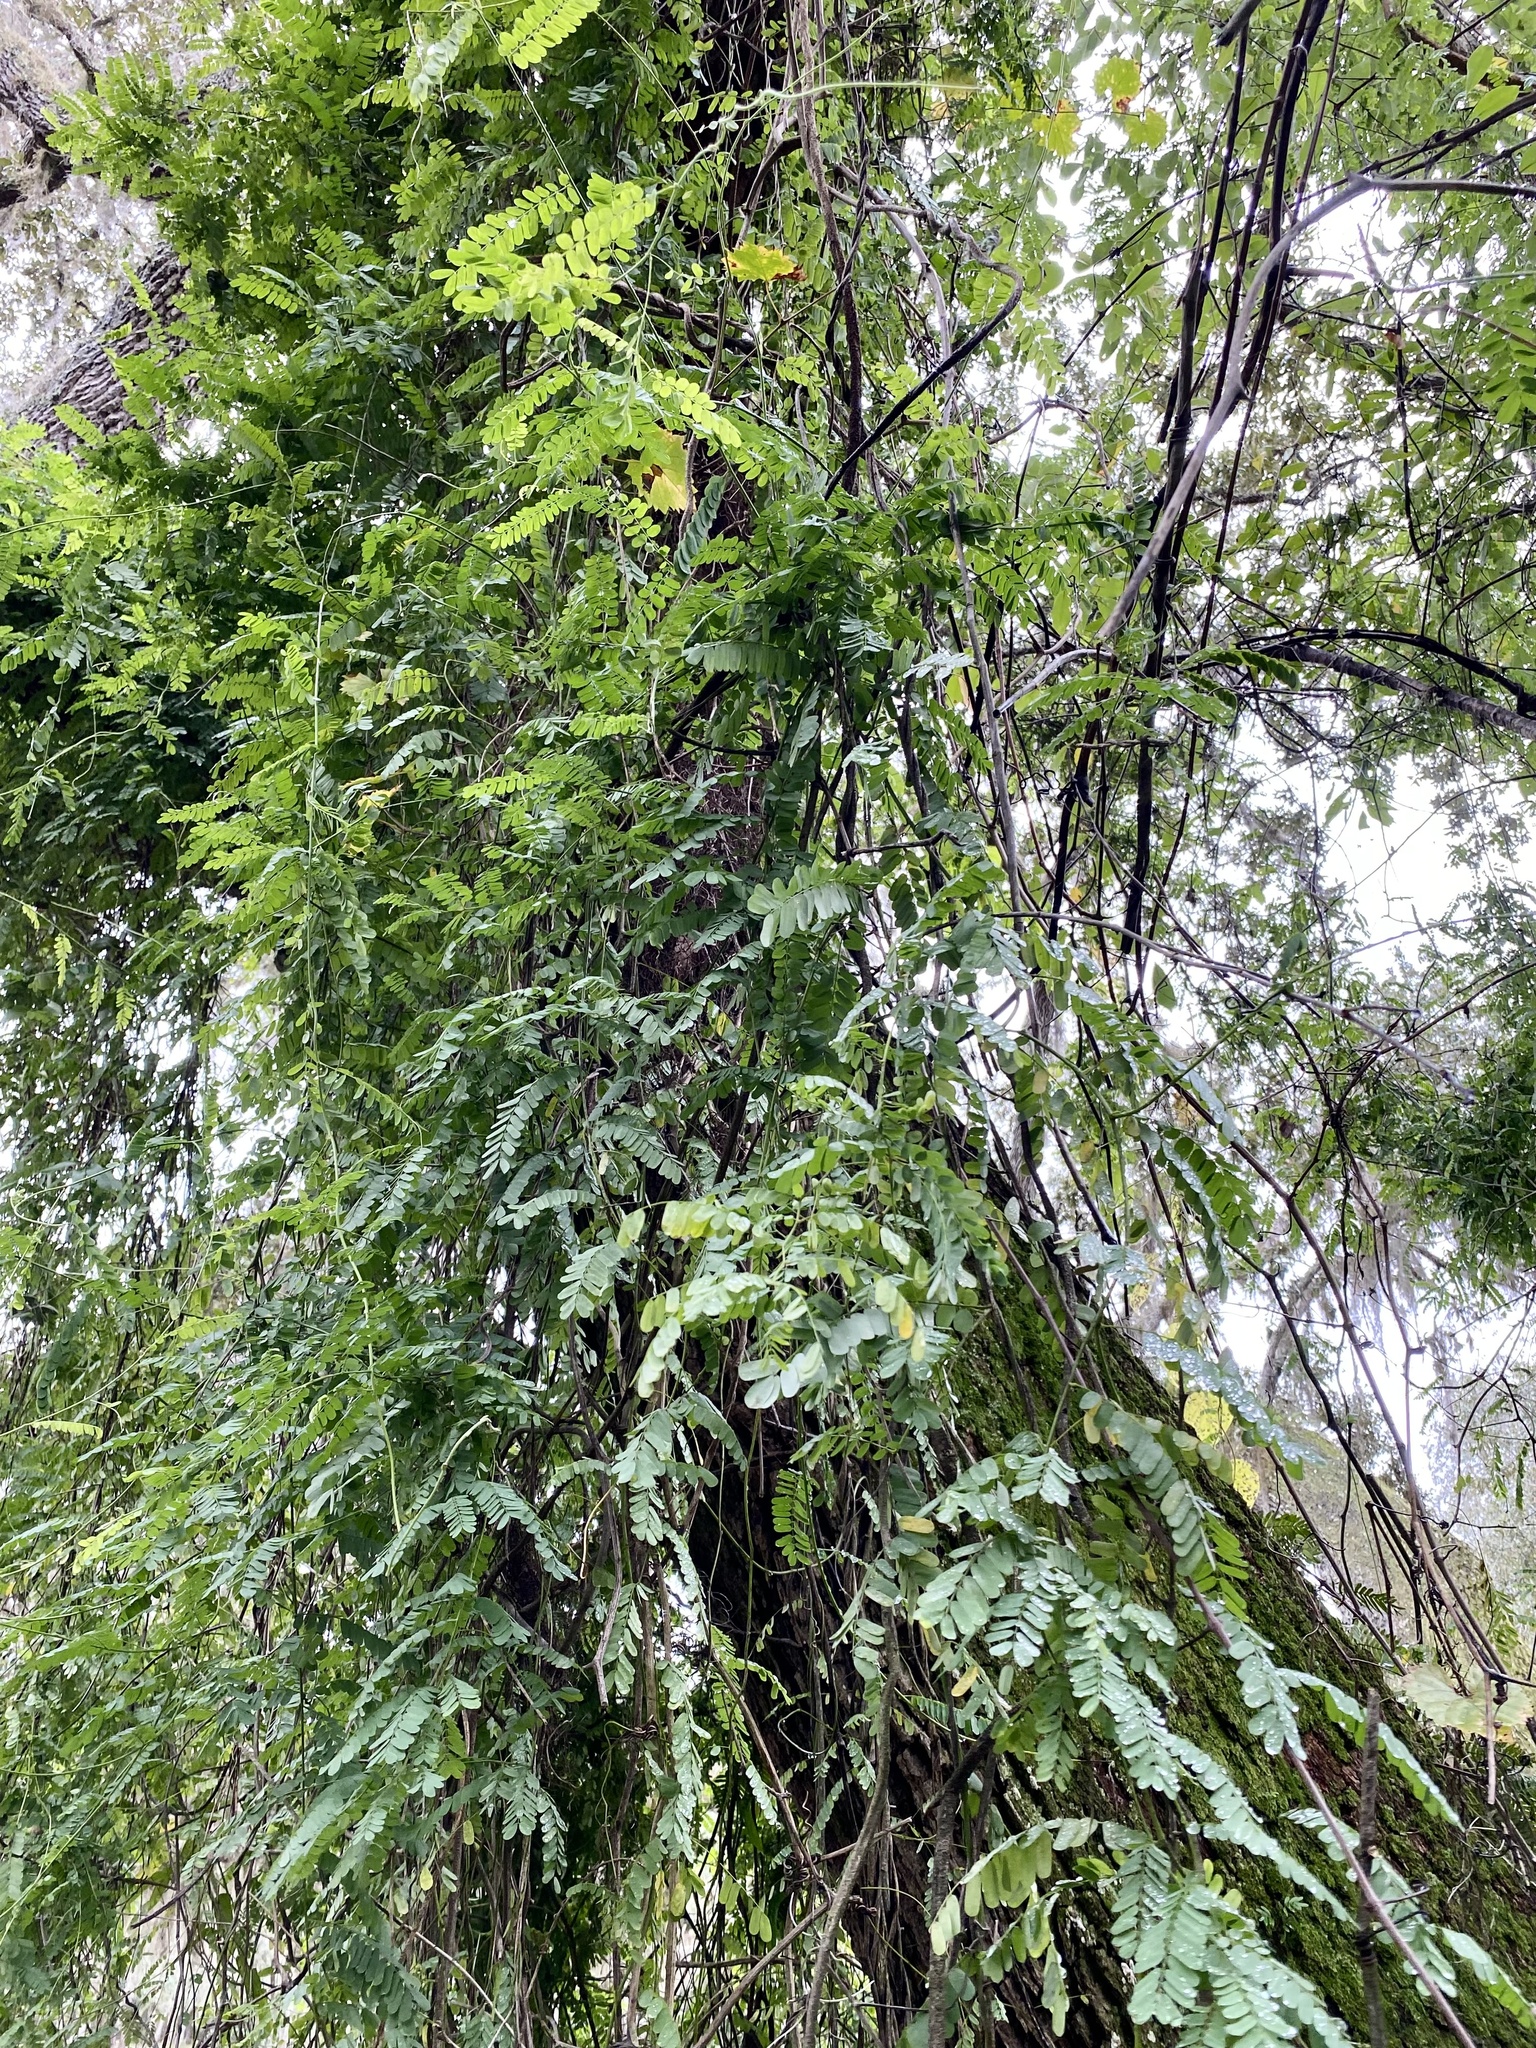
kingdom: Plantae
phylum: Tracheophyta
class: Magnoliopsida
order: Fabales
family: Fabaceae
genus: Abrus
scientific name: Abrus precatorius
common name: Rosarypea
